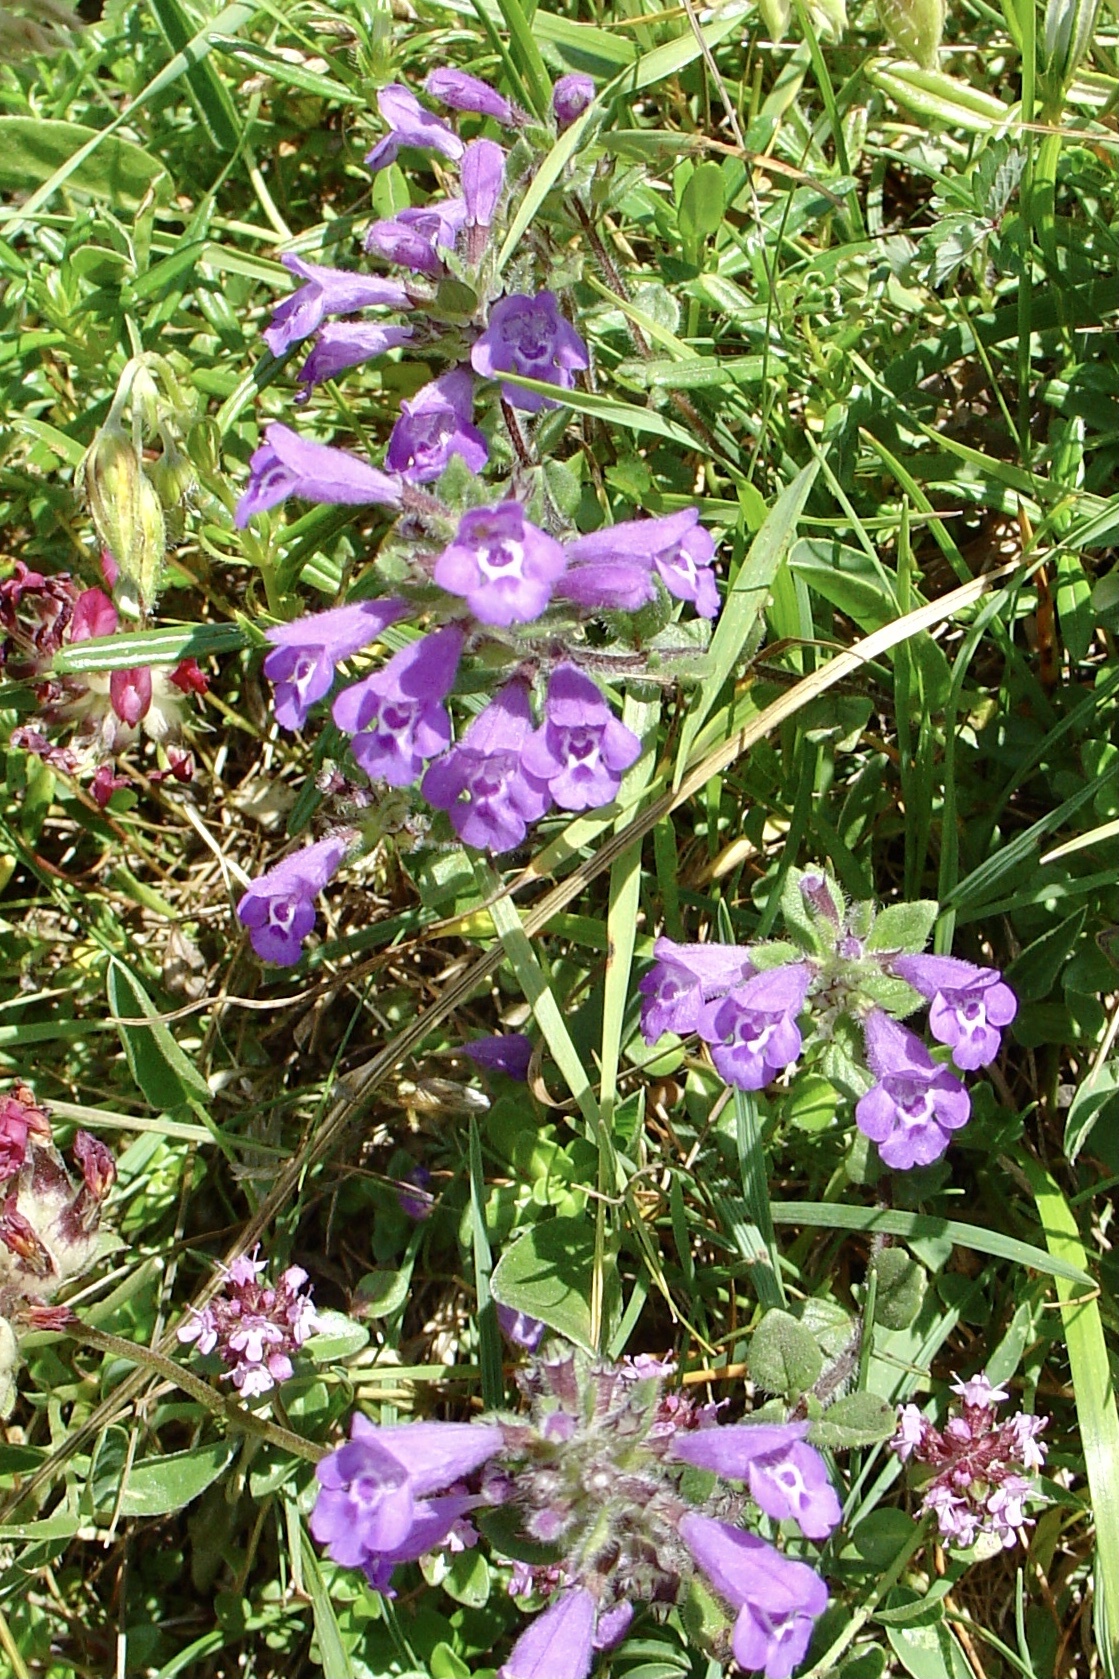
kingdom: Plantae
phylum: Tracheophyta
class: Magnoliopsida
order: Lamiales
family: Lamiaceae
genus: Clinopodium
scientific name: Clinopodium alpinum
